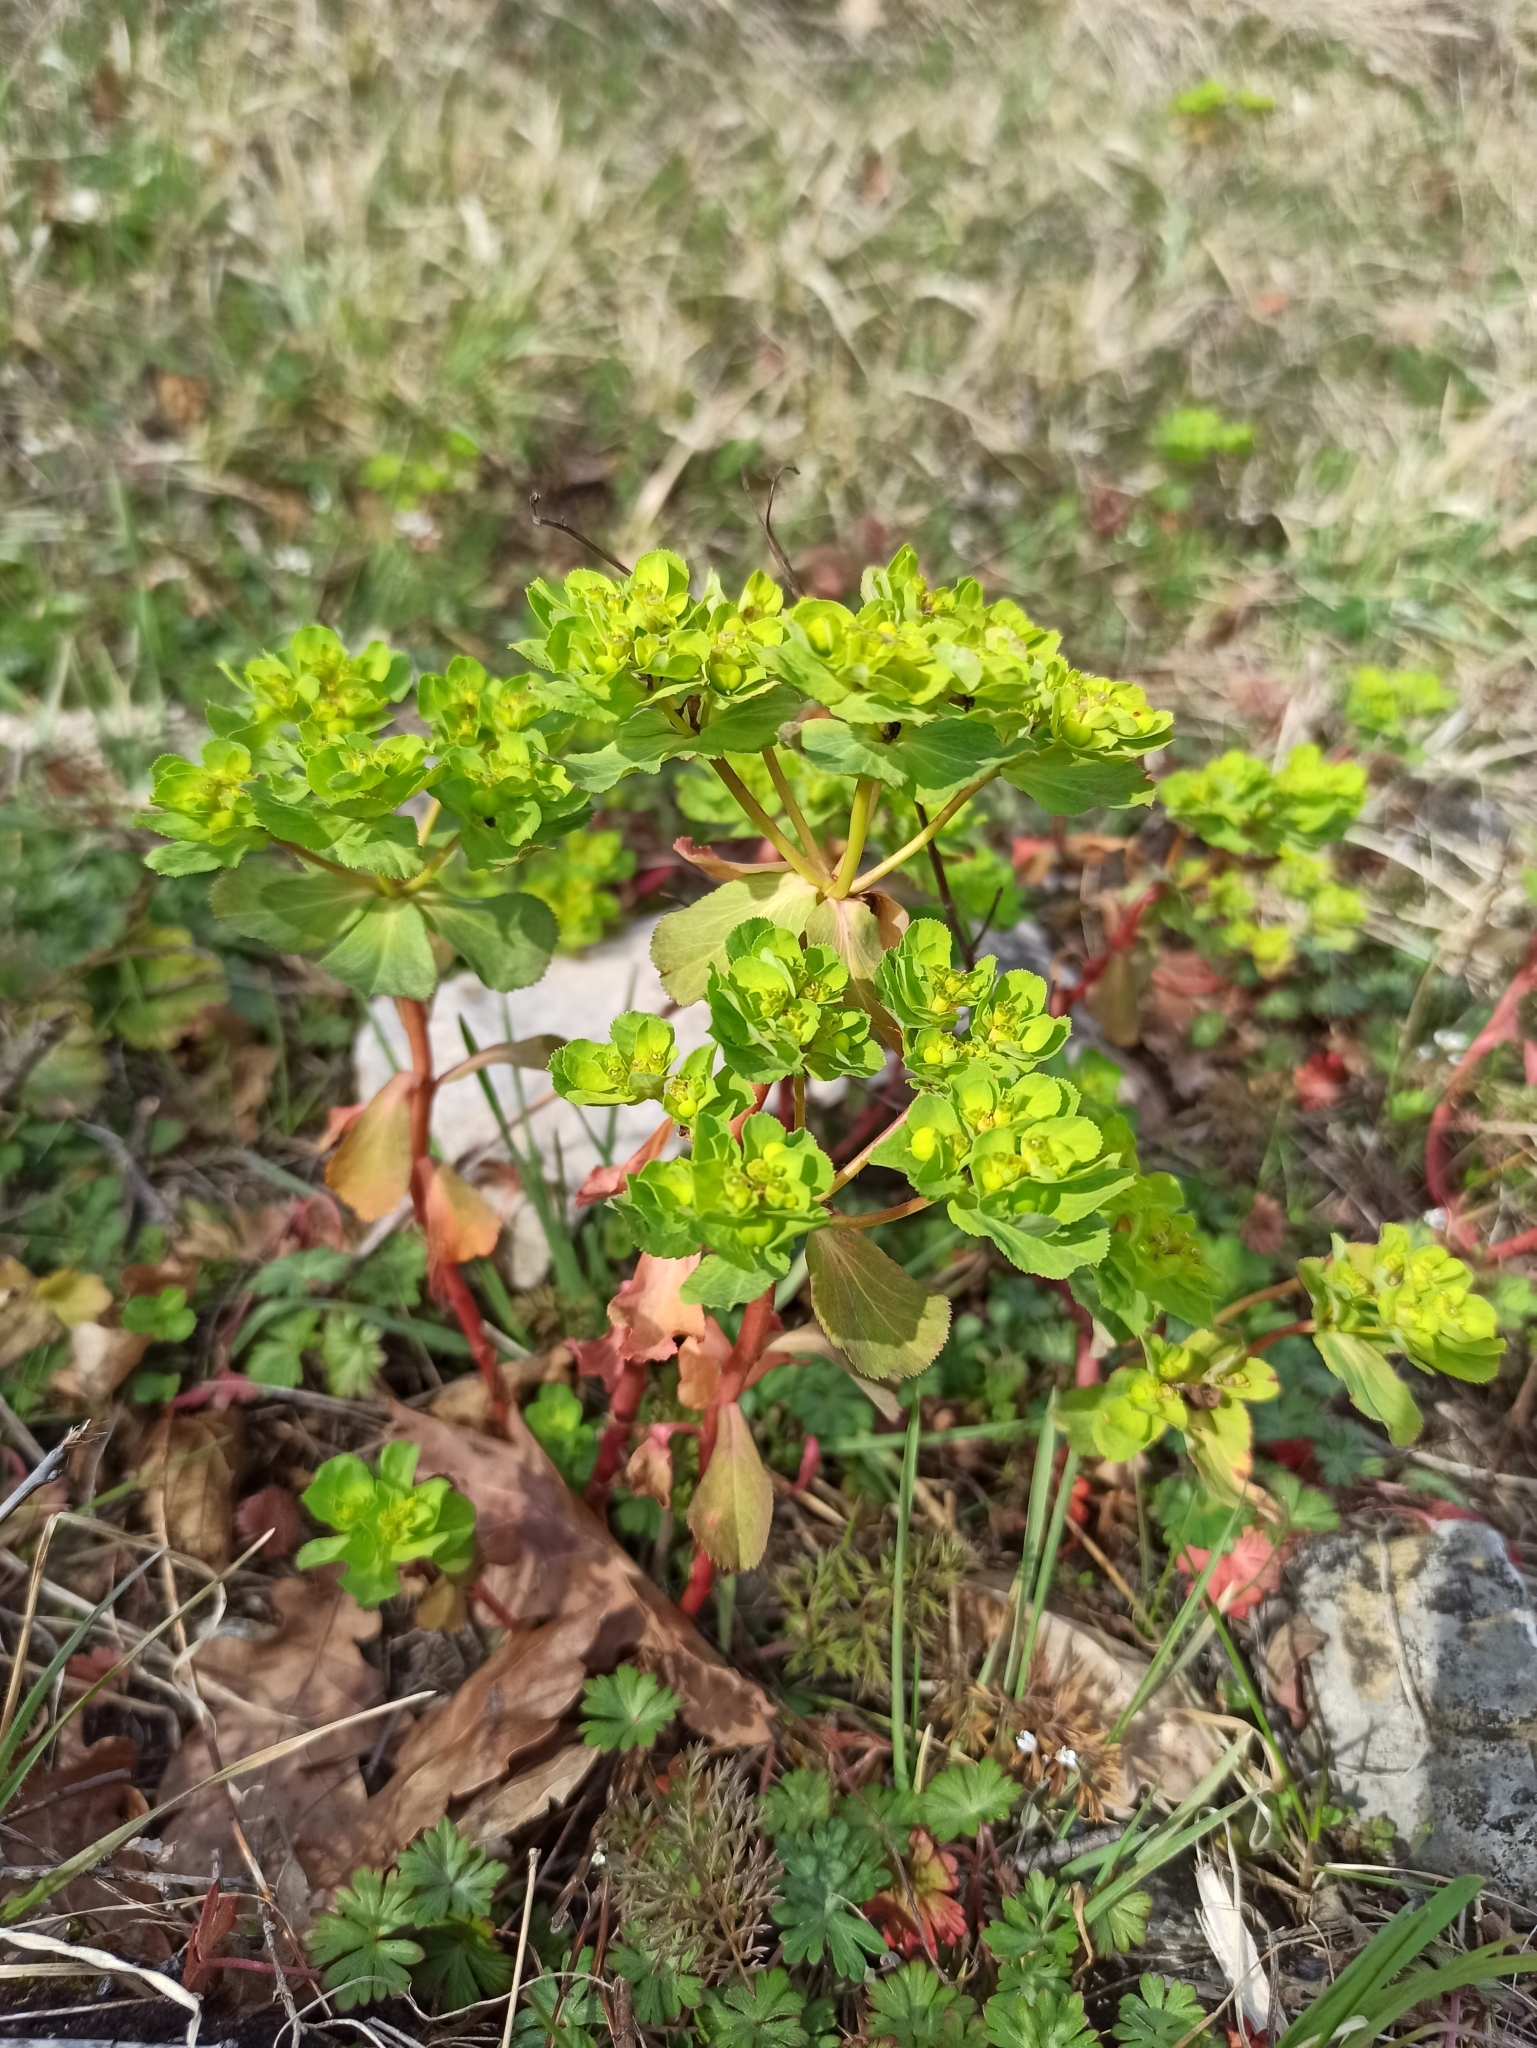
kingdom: Plantae
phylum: Tracheophyta
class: Magnoliopsida
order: Malpighiales
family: Euphorbiaceae
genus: Euphorbia
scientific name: Euphorbia helioscopia
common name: Sun spurge
